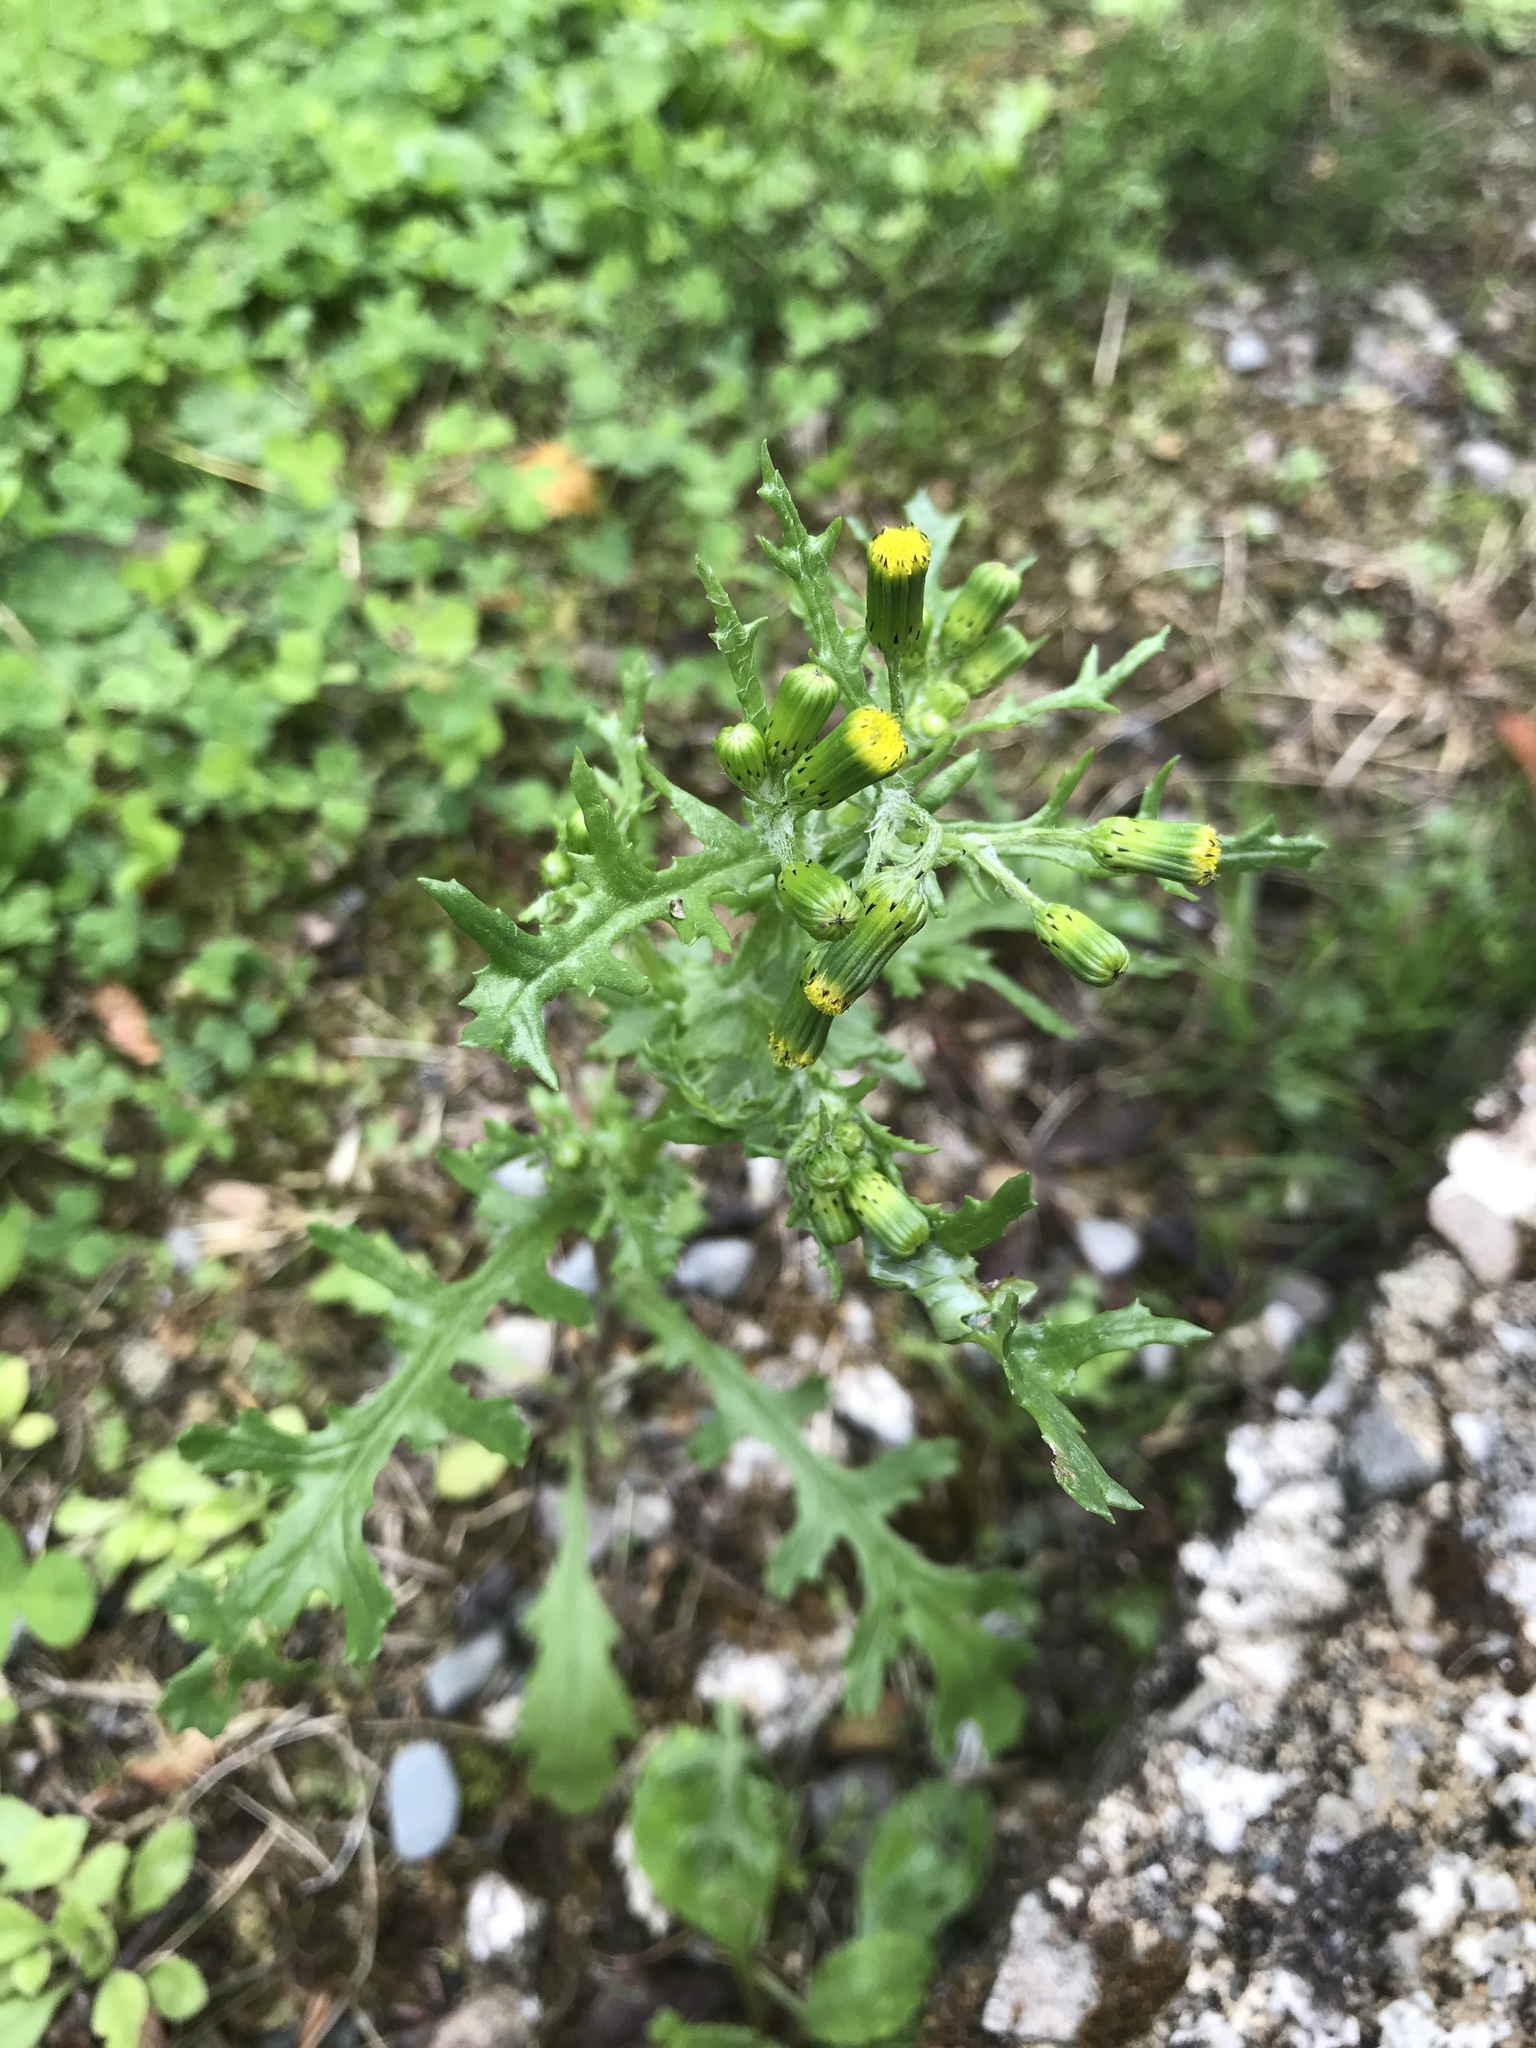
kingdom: Plantae
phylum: Tracheophyta
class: Magnoliopsida
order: Asterales
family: Asteraceae
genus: Senecio
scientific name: Senecio vulgaris
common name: Old-man-in-the-spring
